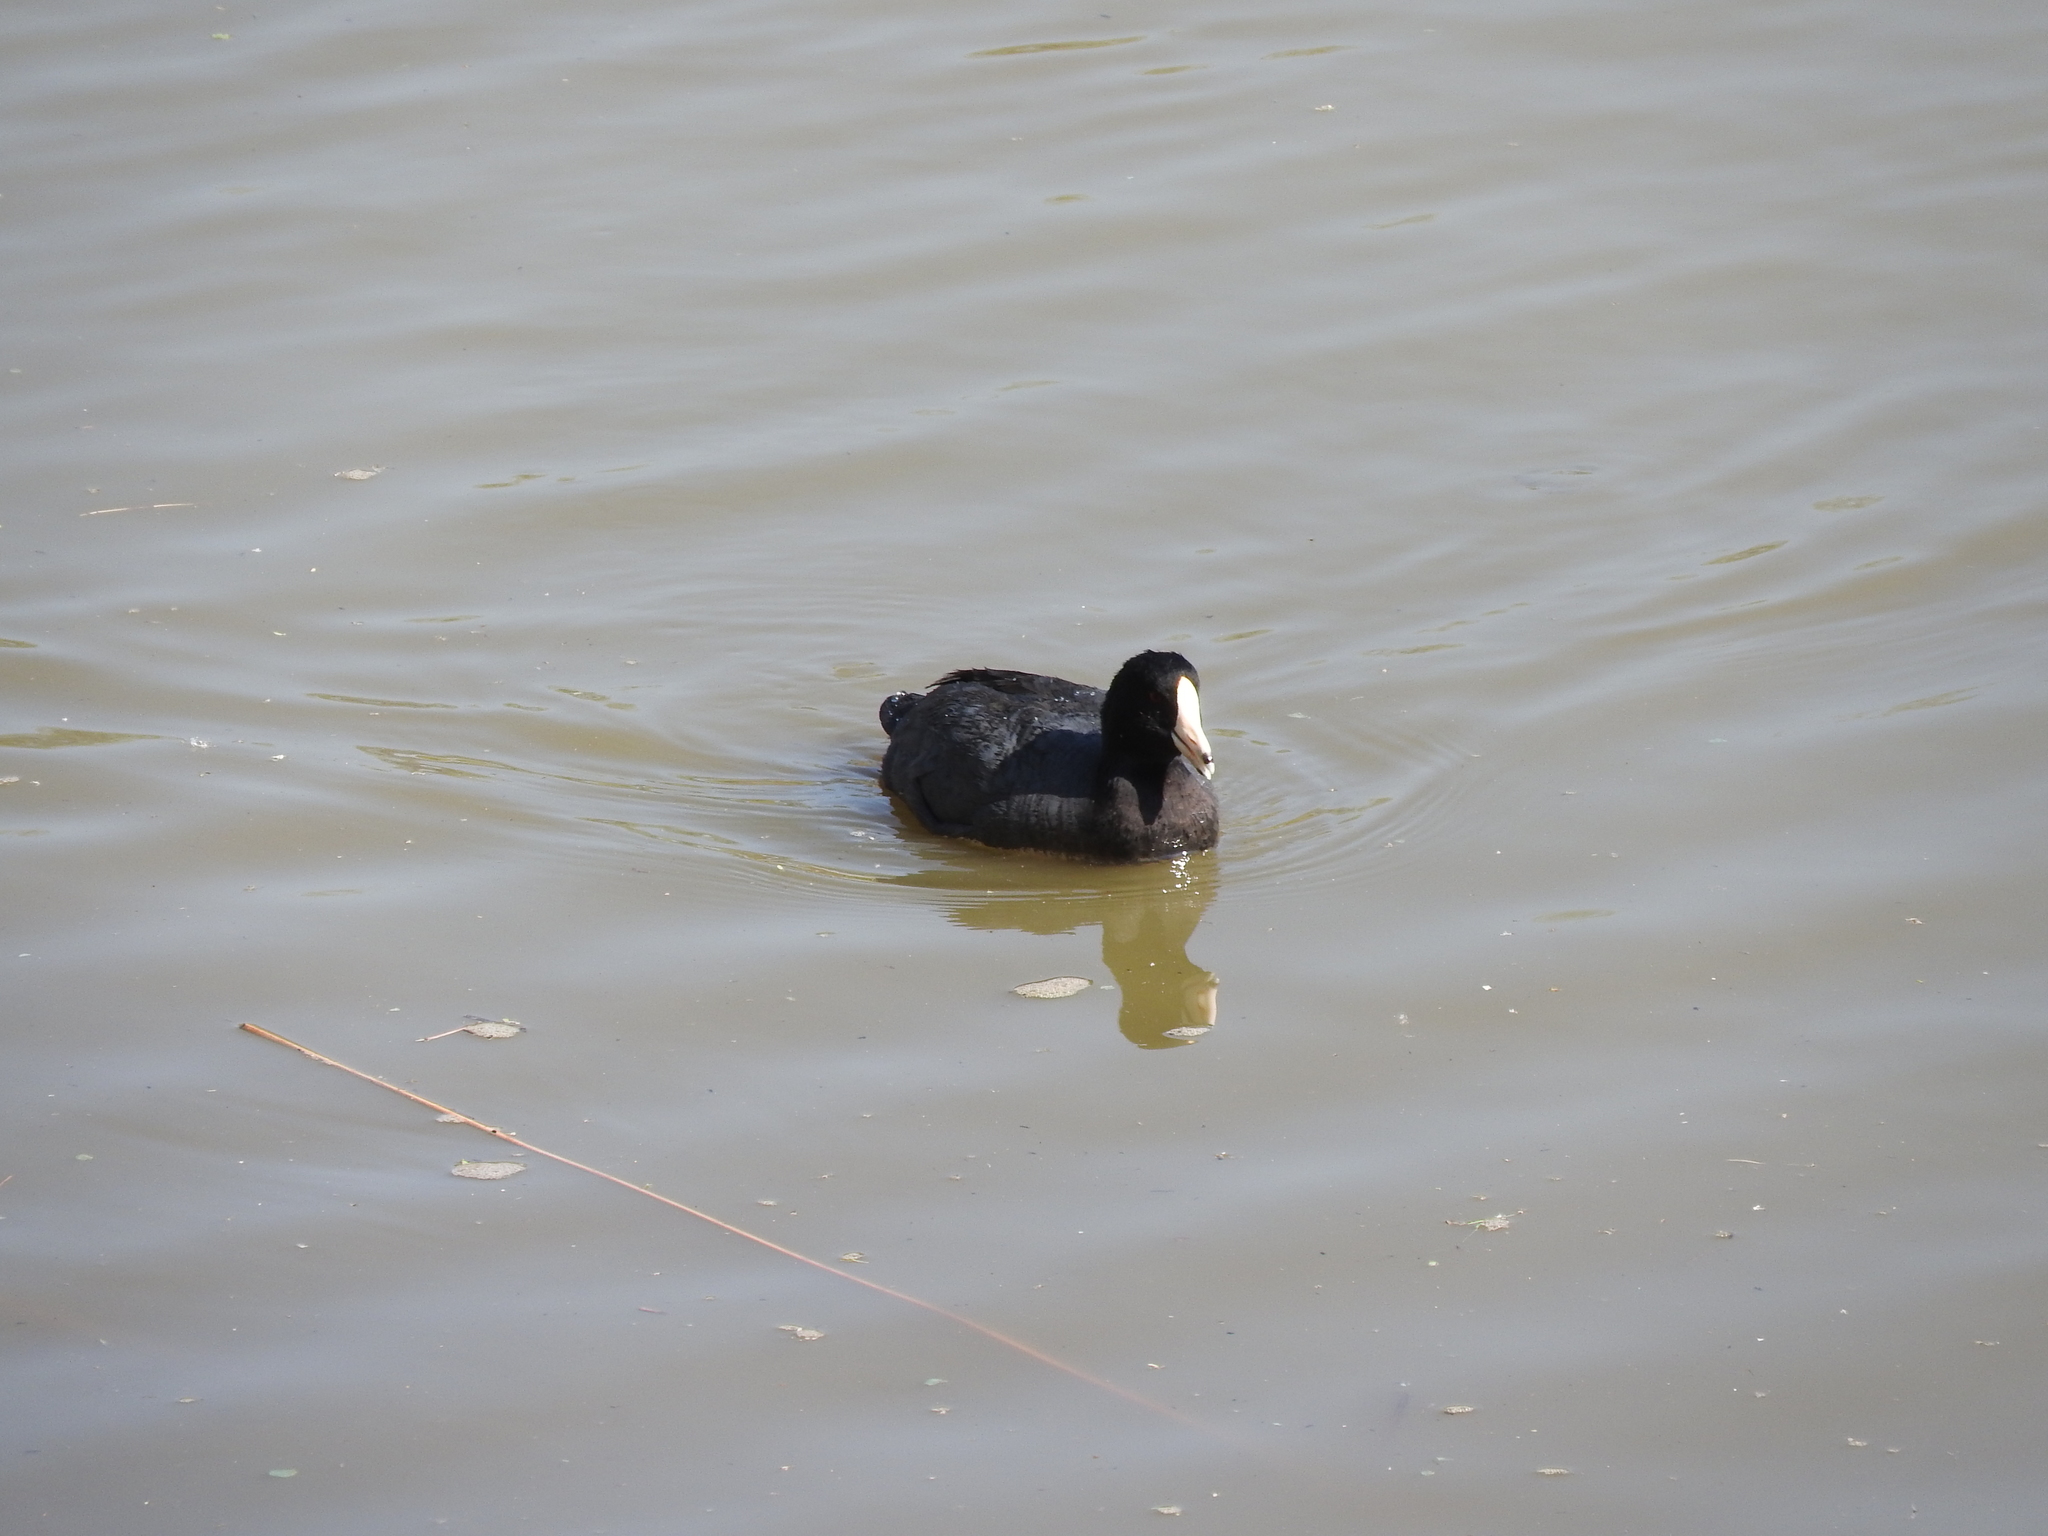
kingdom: Animalia
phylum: Chordata
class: Aves
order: Gruiformes
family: Rallidae
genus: Fulica
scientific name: Fulica americana
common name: American coot
